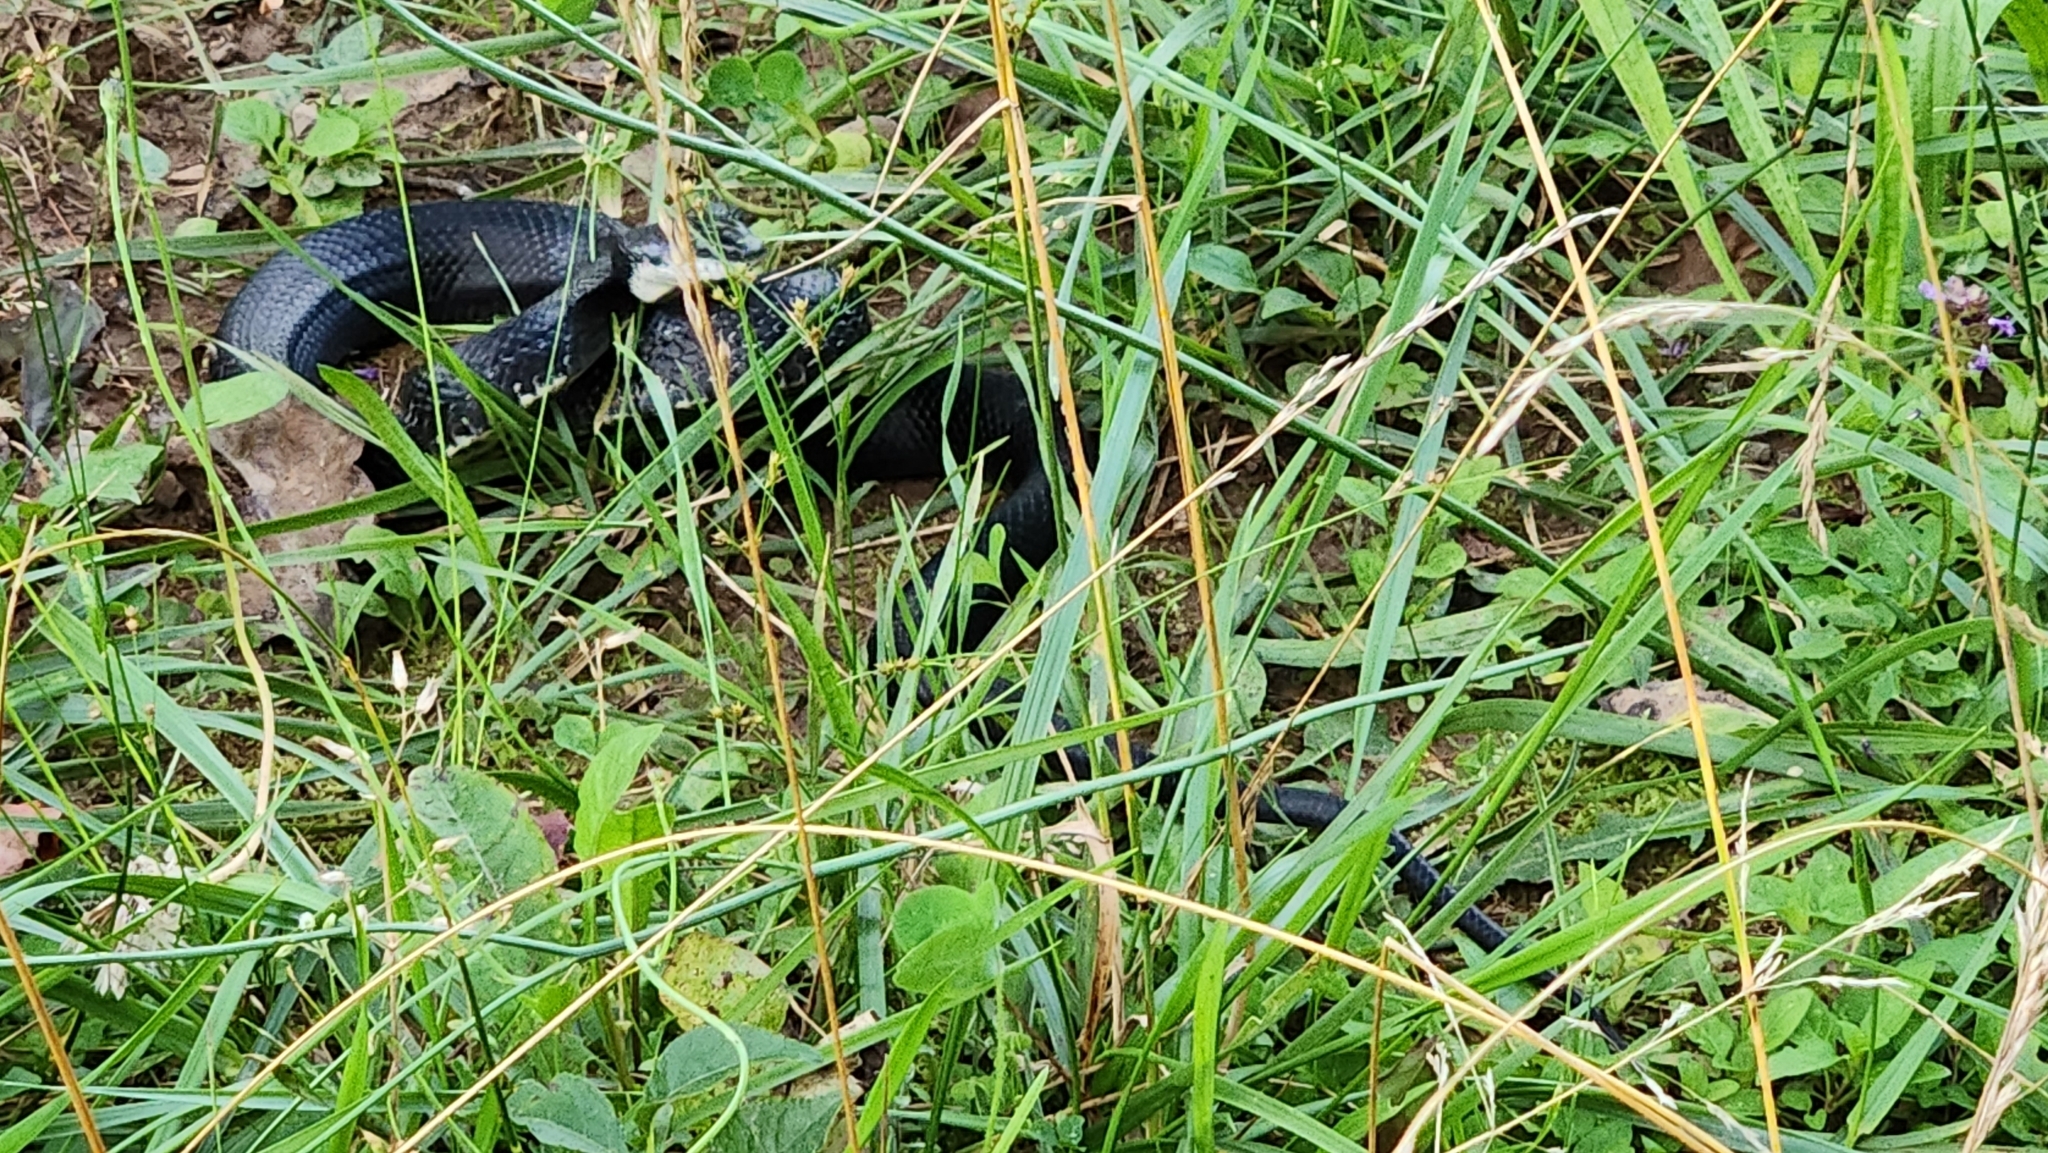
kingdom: Animalia
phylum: Chordata
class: Squamata
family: Colubridae
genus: Pantherophis
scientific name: Pantherophis
